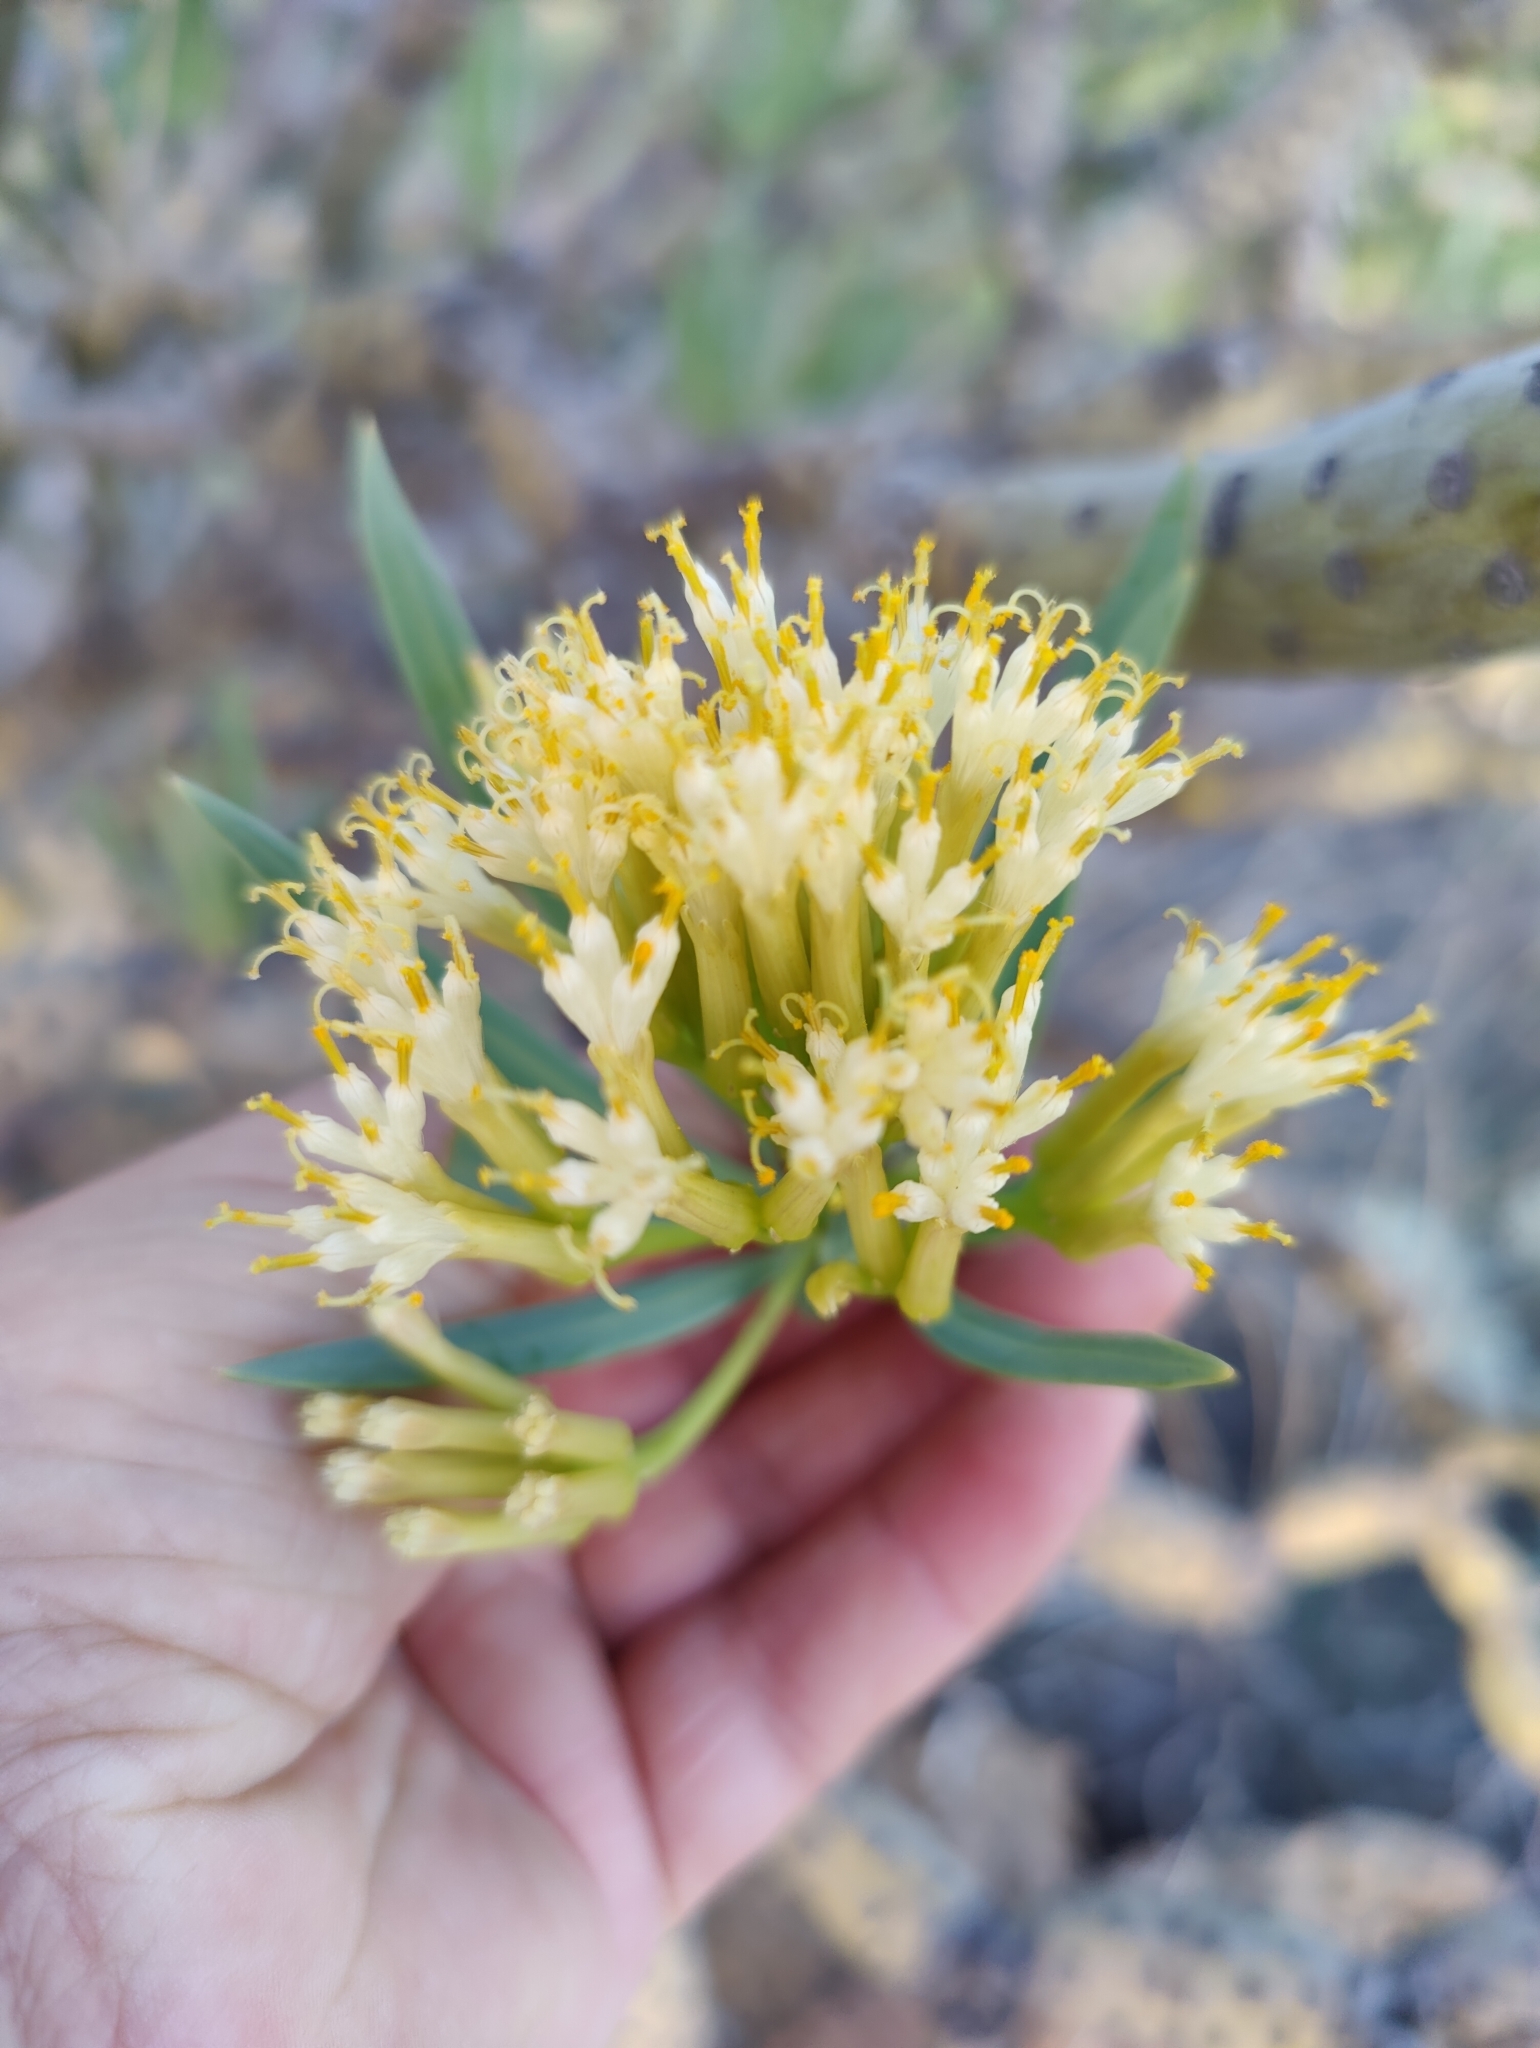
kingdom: Plantae
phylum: Tracheophyta
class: Magnoliopsida
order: Asterales
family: Asteraceae
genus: Kleinia
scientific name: Kleinia neriifolia
